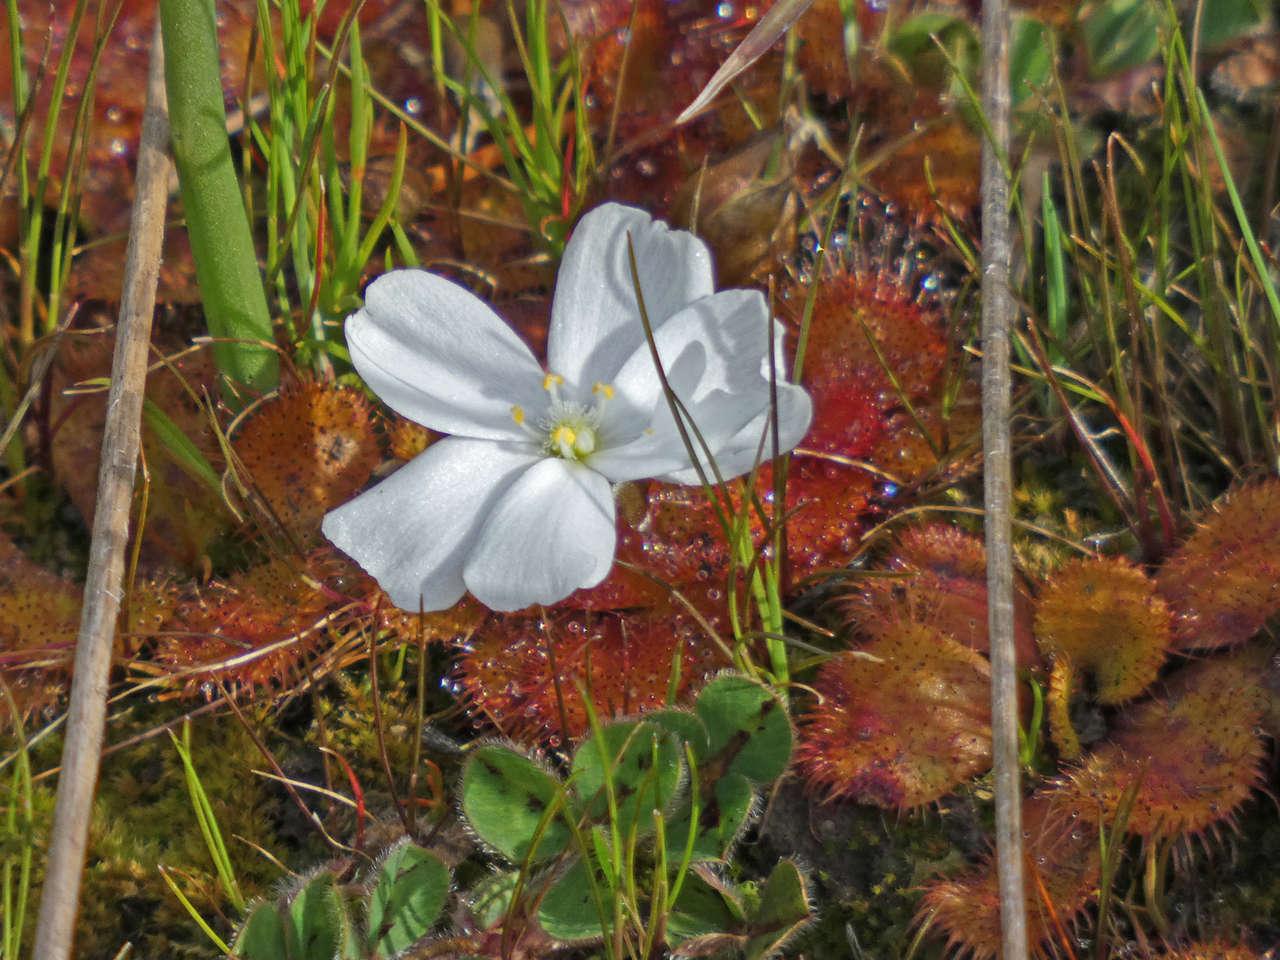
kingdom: Plantae
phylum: Tracheophyta
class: Magnoliopsida
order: Caryophyllales
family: Droseraceae
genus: Drosera
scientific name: Drosera aberrans
